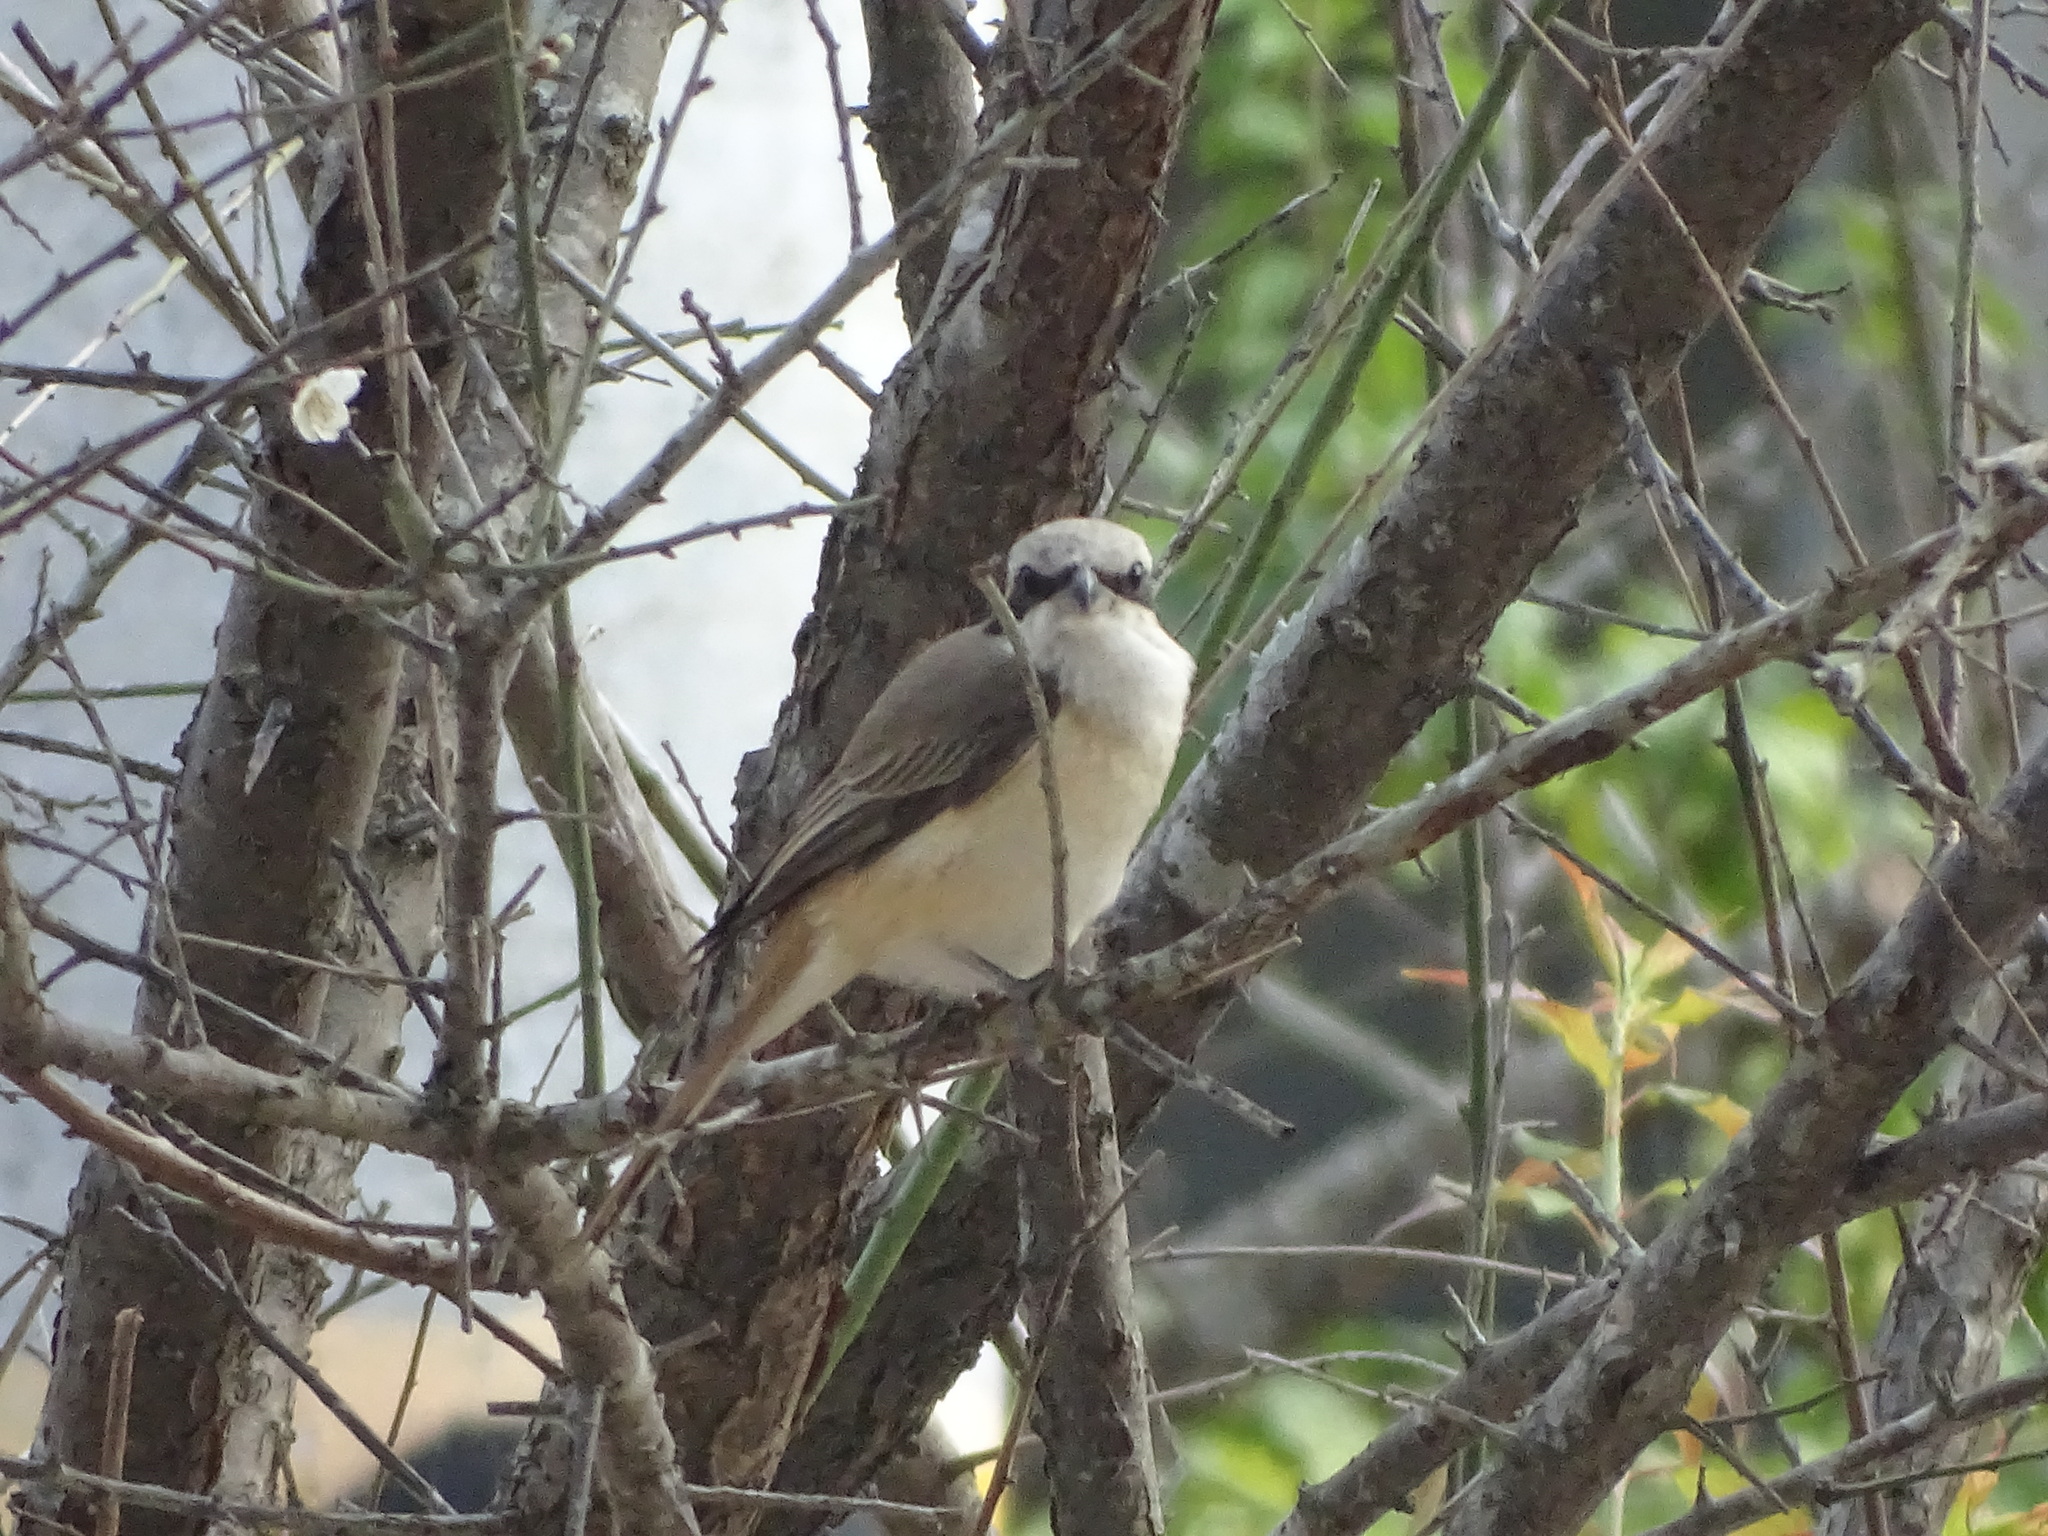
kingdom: Animalia
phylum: Chordata
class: Aves
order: Passeriformes
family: Laniidae
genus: Lanius
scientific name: Lanius cristatus
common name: Brown shrike
